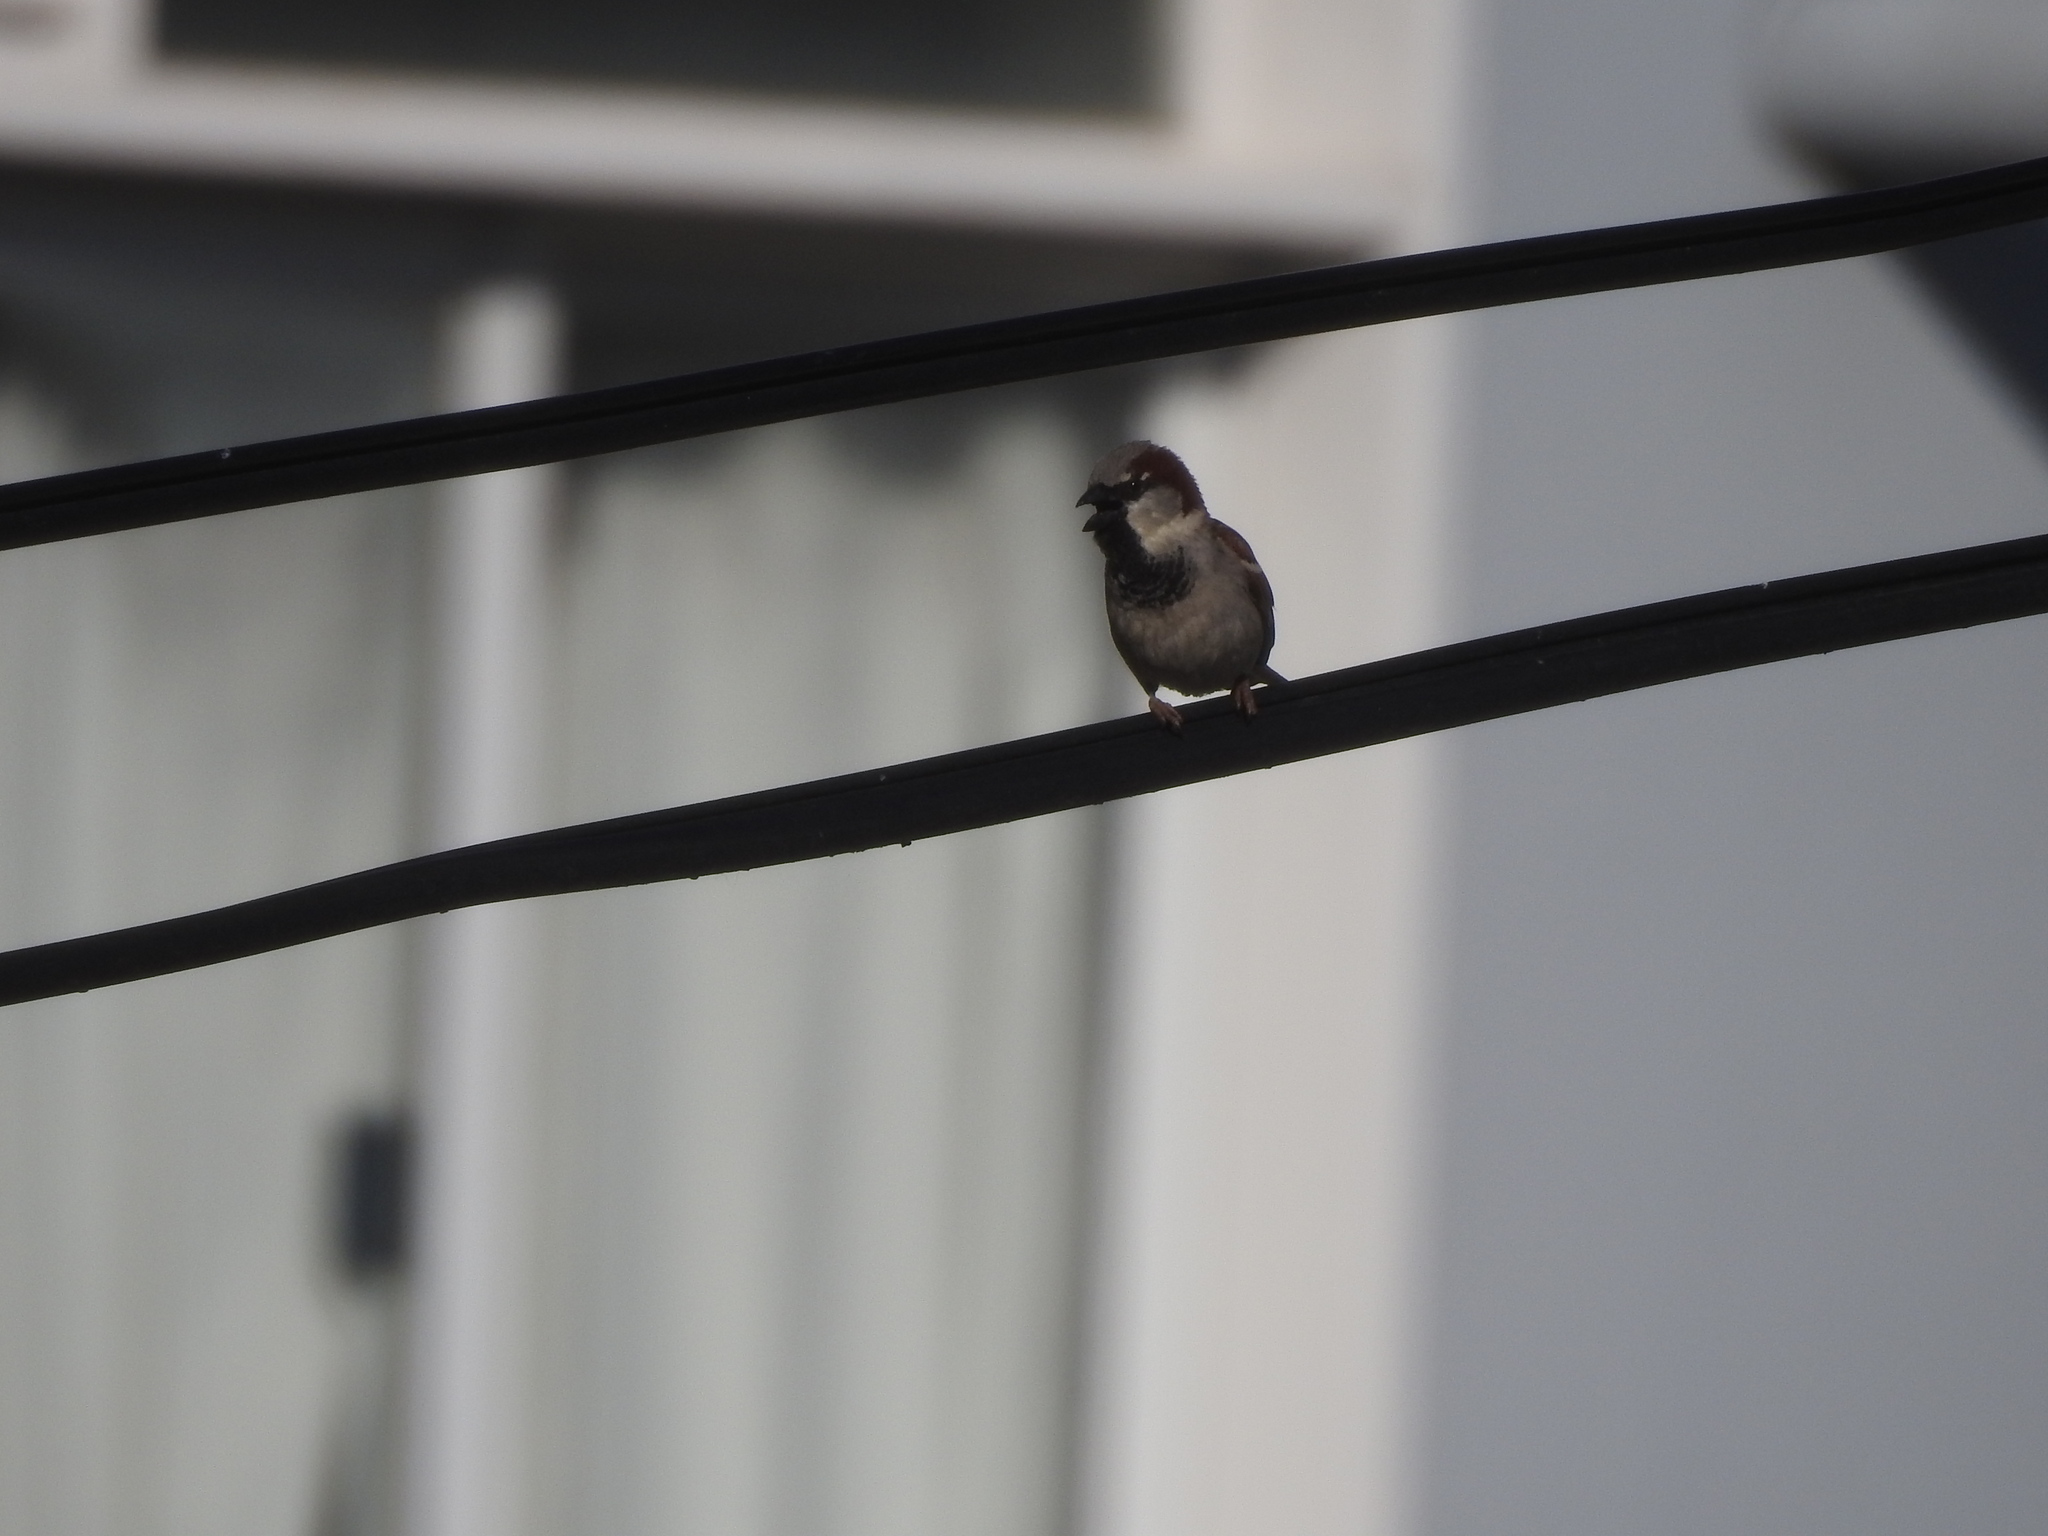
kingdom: Animalia
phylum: Chordata
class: Aves
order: Passeriformes
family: Passeridae
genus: Passer
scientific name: Passer domesticus
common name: House sparrow
